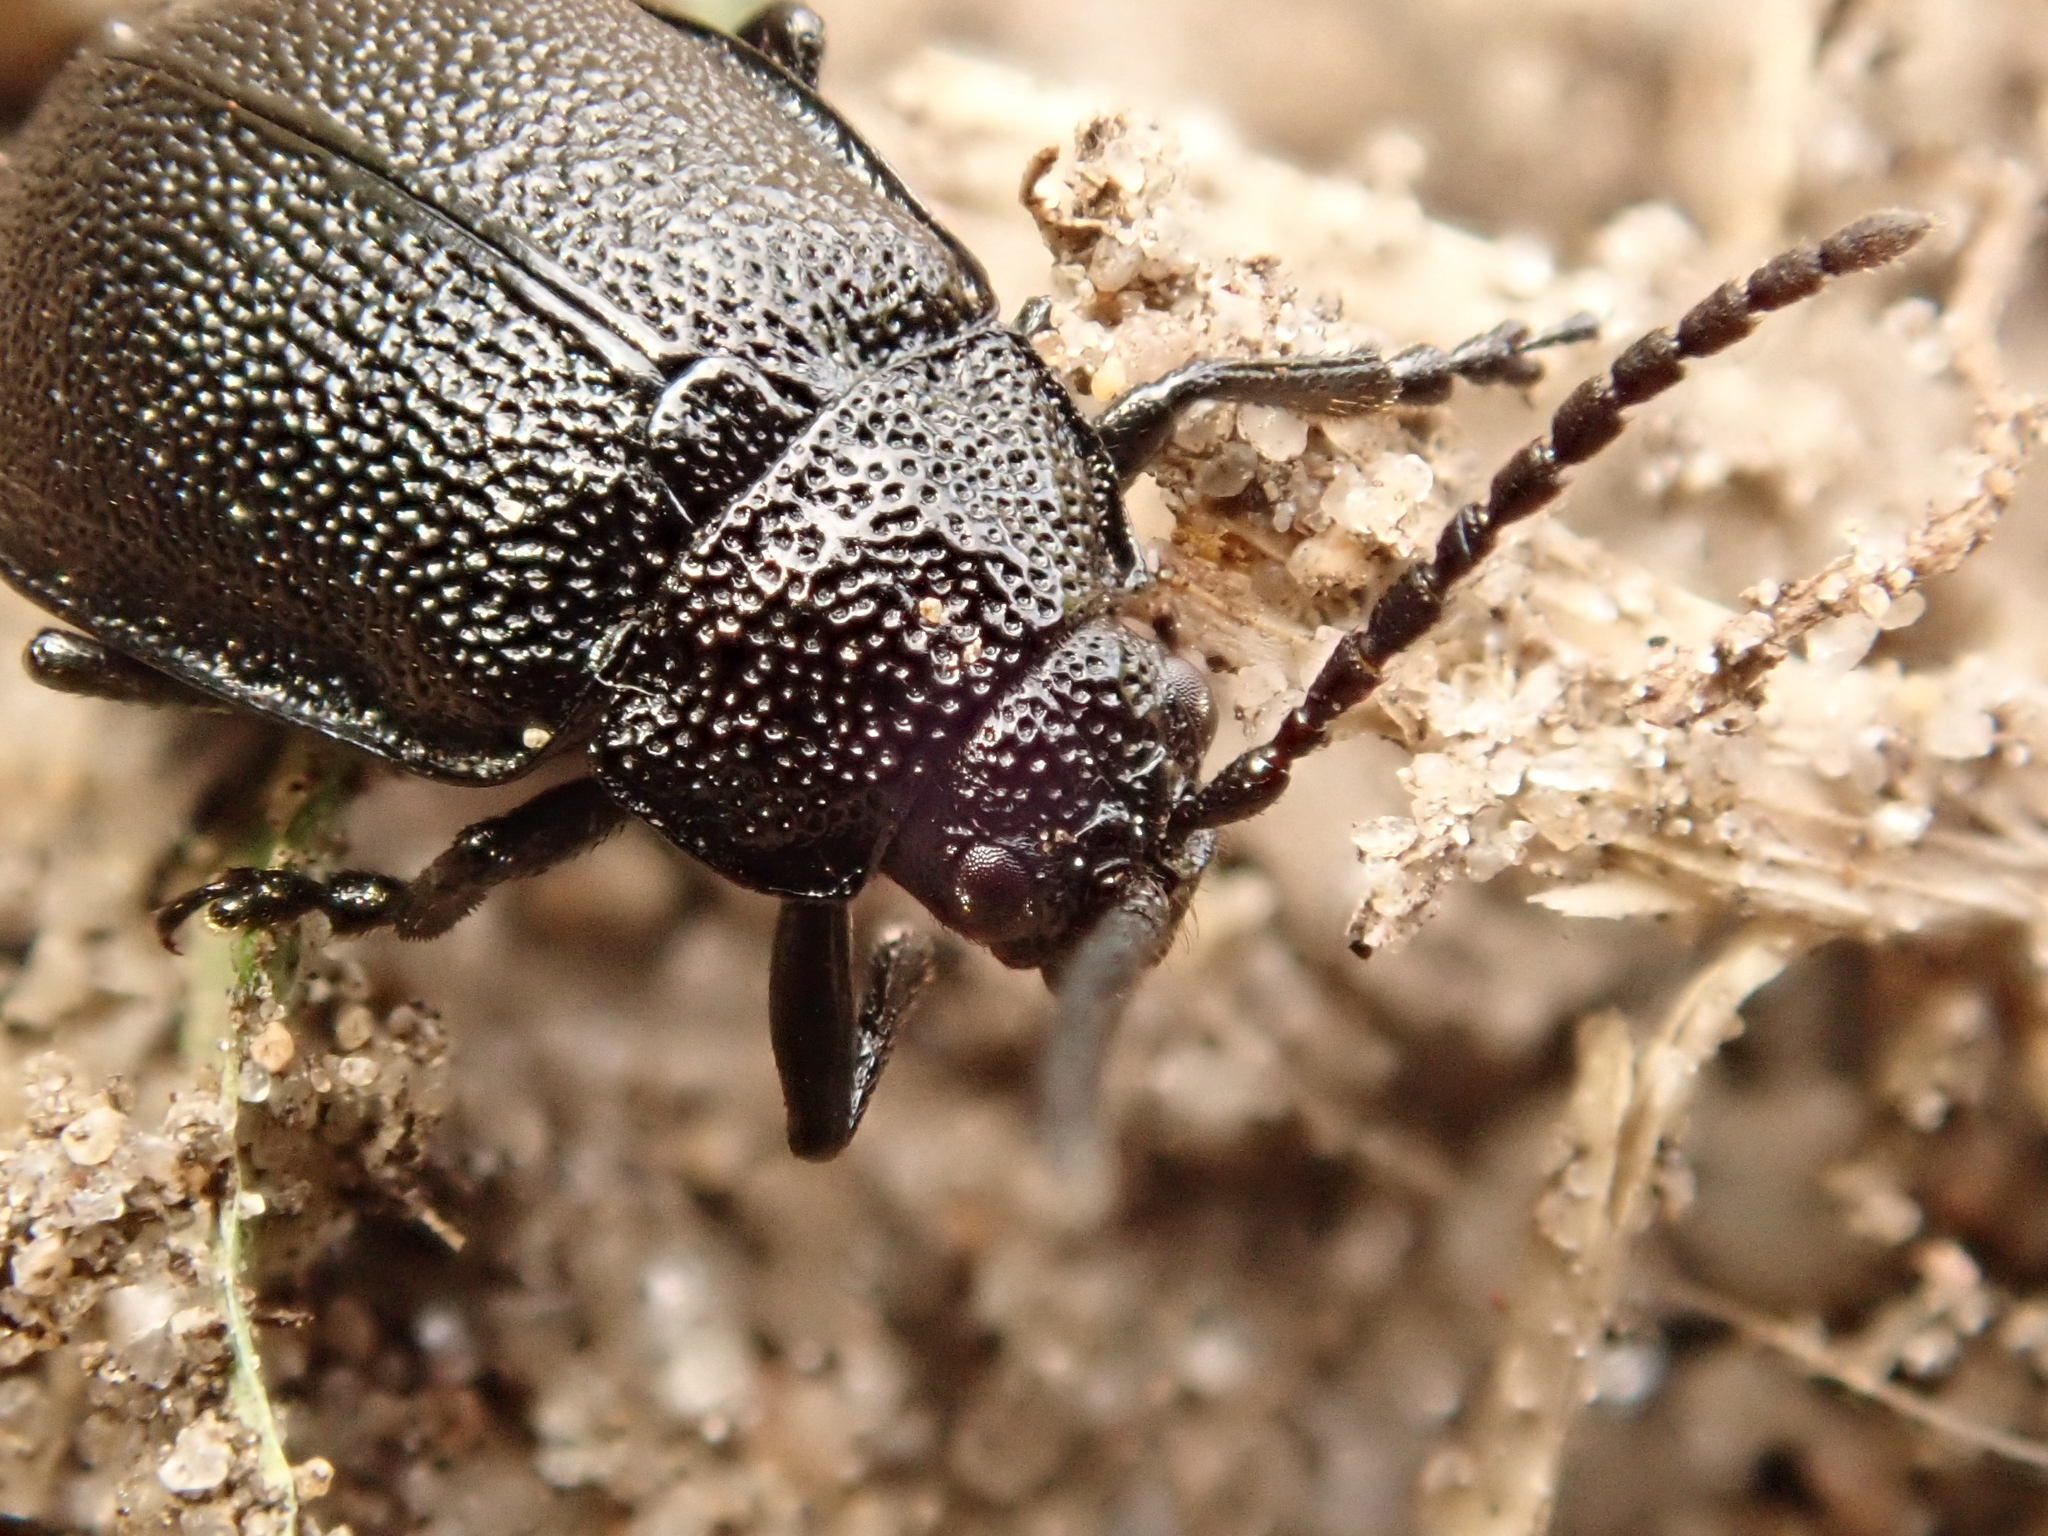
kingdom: Animalia
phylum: Arthropoda
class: Insecta
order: Coleoptera
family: Chrysomelidae
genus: Galeruca
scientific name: Galeruca tanaceti
